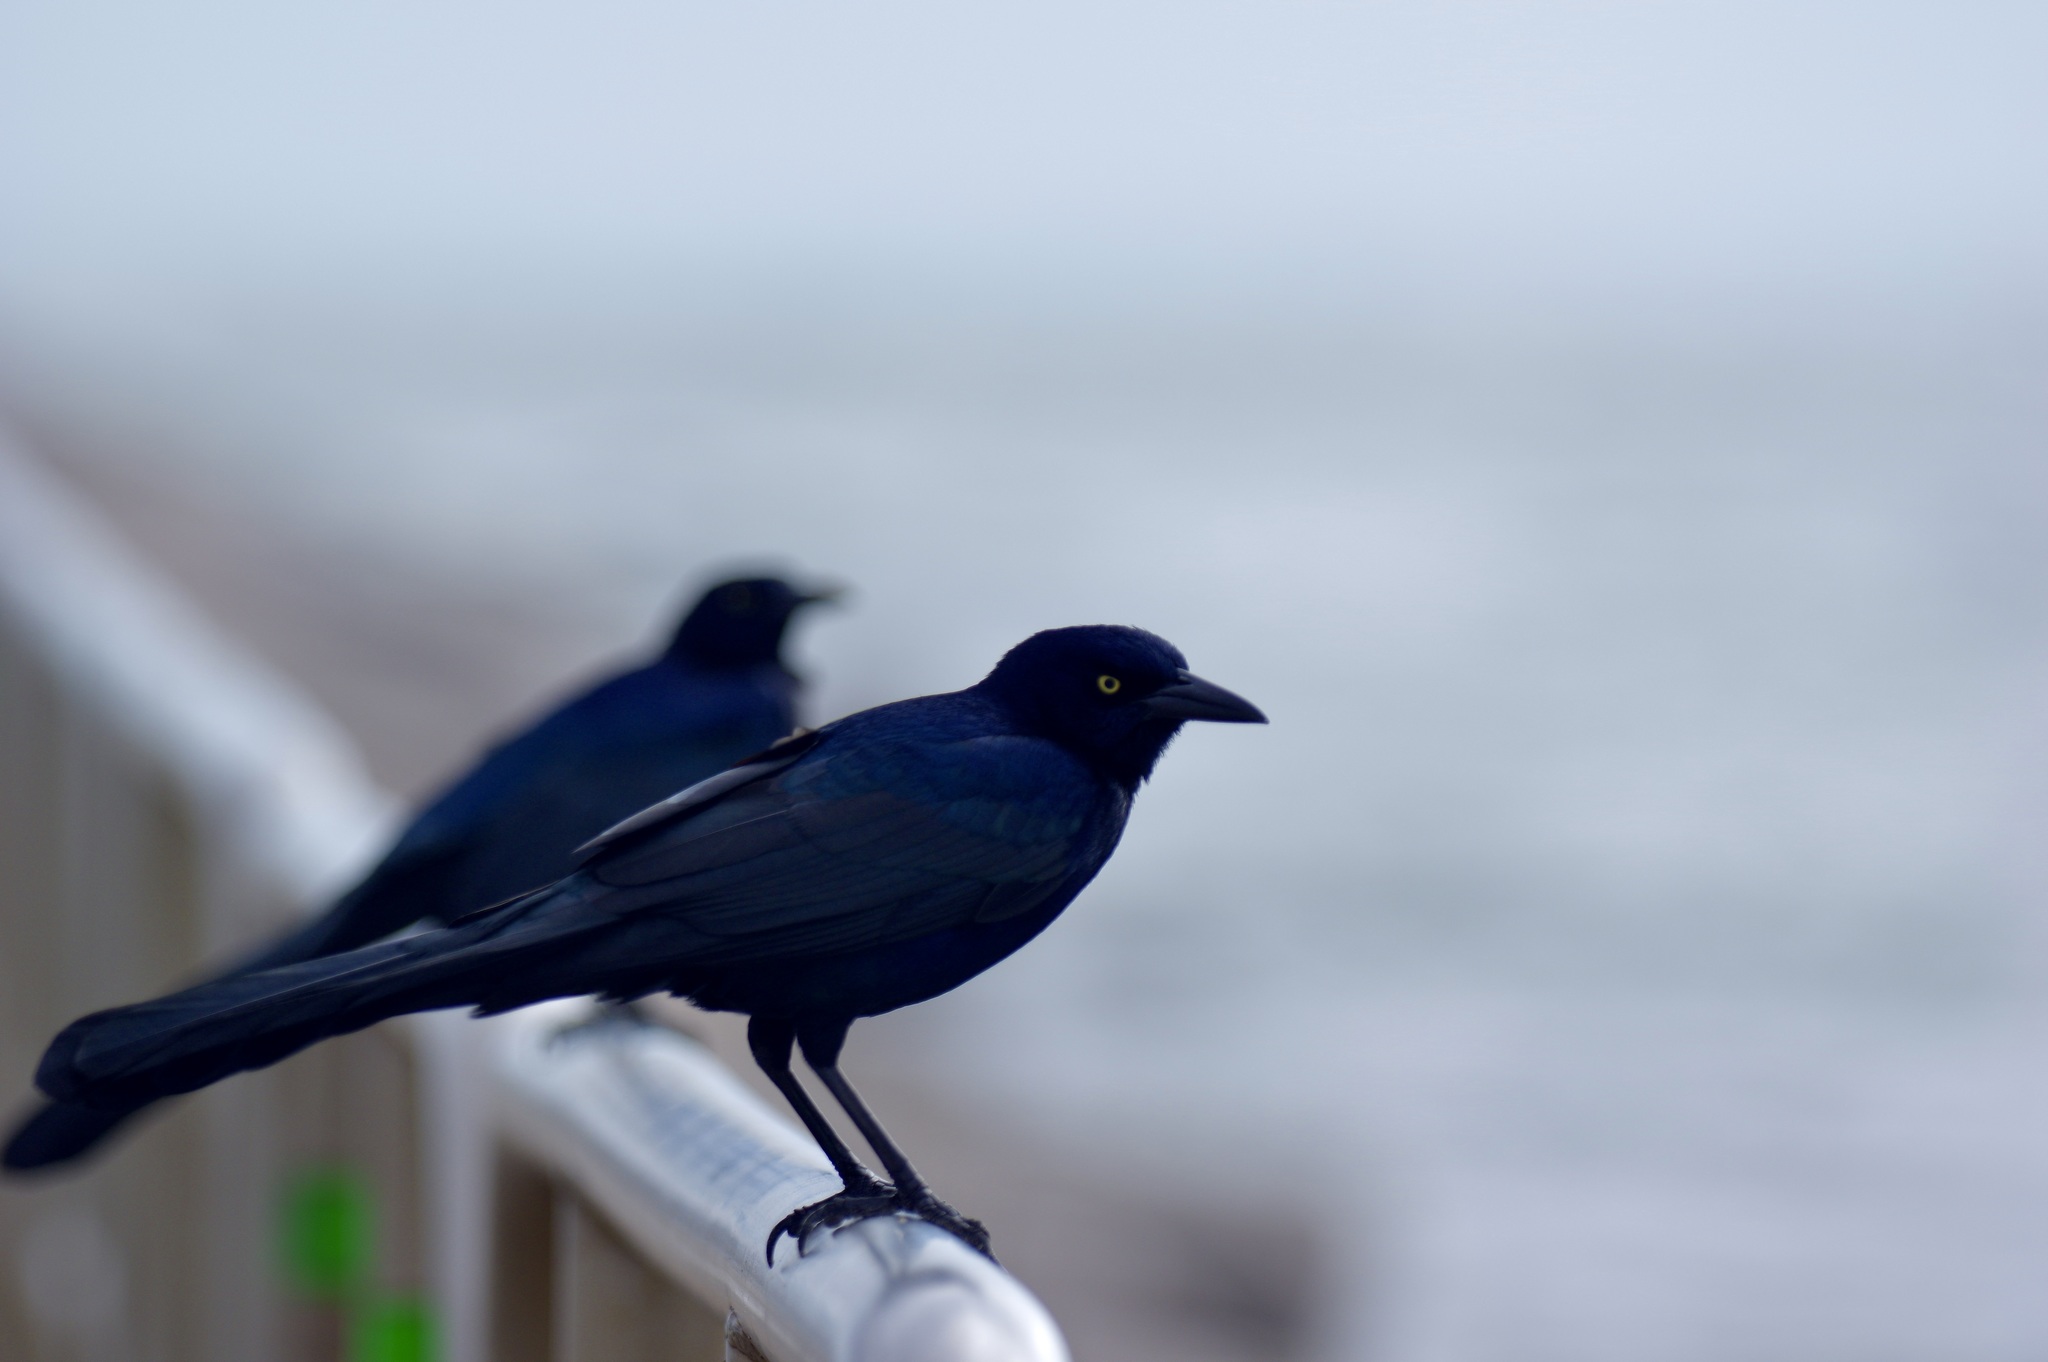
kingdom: Animalia
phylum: Chordata
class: Aves
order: Passeriformes
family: Icteridae
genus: Quiscalus
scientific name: Quiscalus mexicanus
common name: Great-tailed grackle
